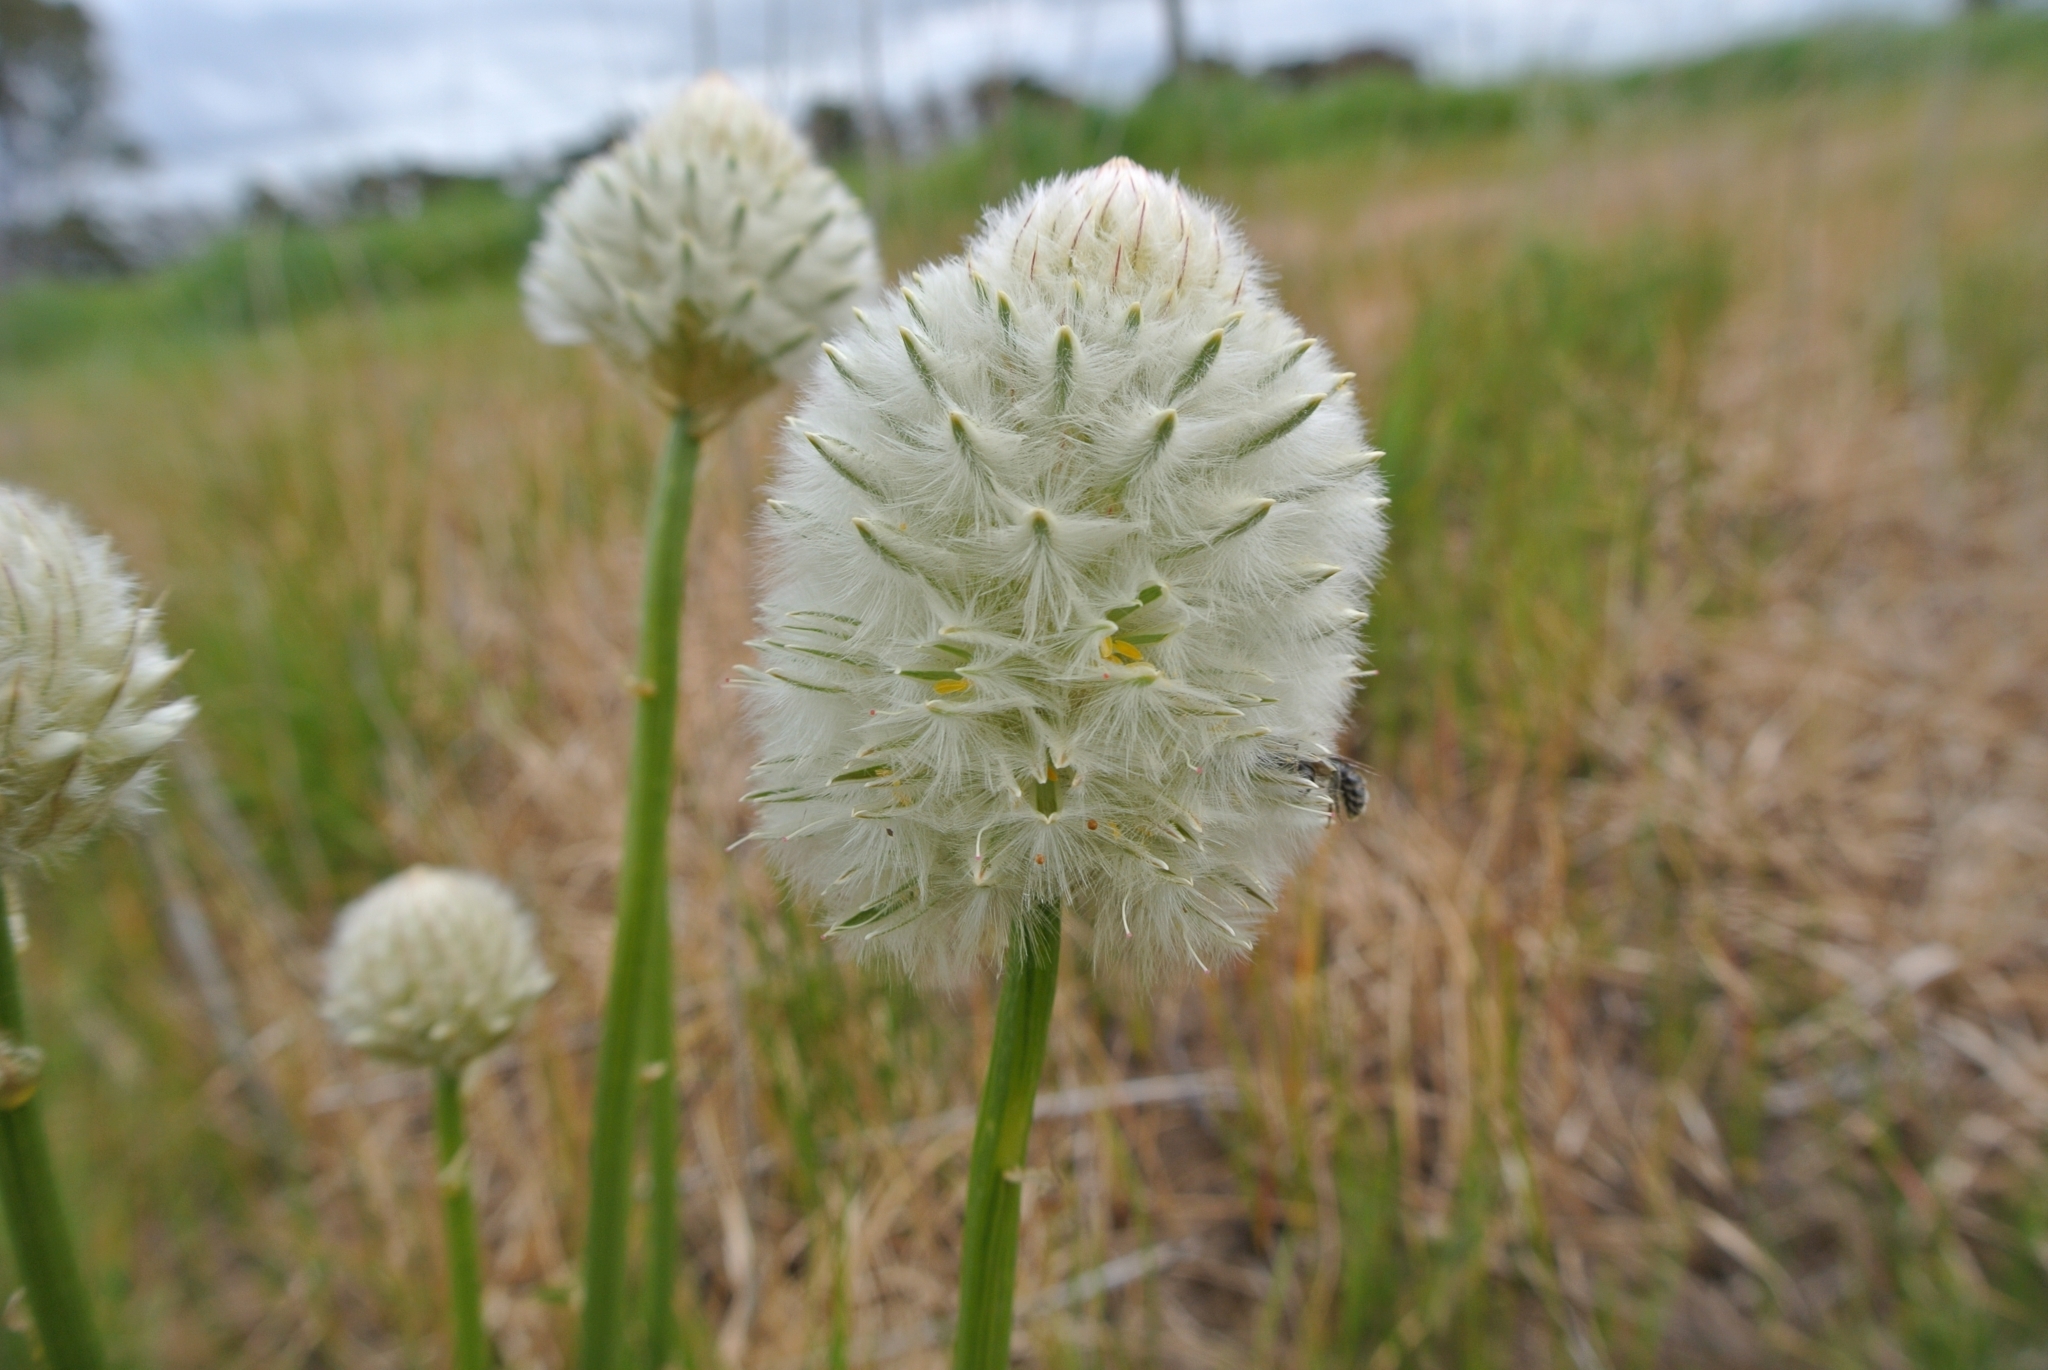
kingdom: Plantae
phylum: Tracheophyta
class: Magnoliopsida
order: Caryophyllales
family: Amaranthaceae
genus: Ptilotus
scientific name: Ptilotus macrocephalus
